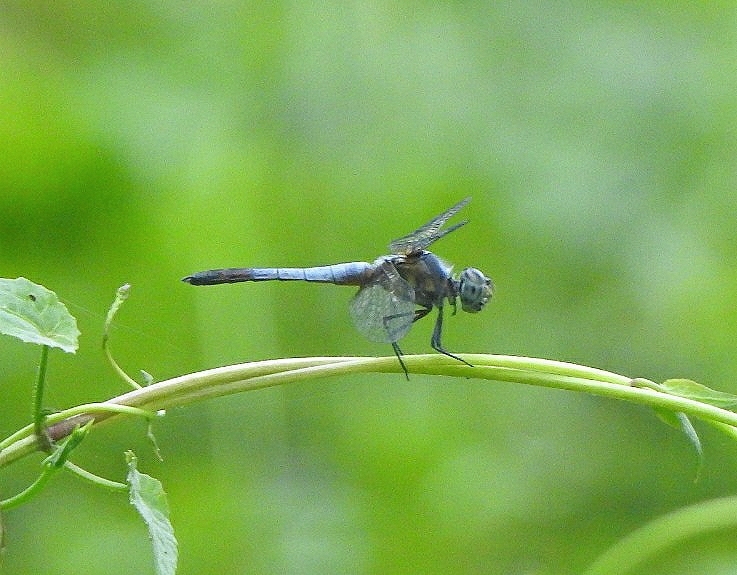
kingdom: Animalia
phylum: Arthropoda
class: Insecta
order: Odonata
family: Libellulidae
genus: Brachydiplax
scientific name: Brachydiplax chalybea
